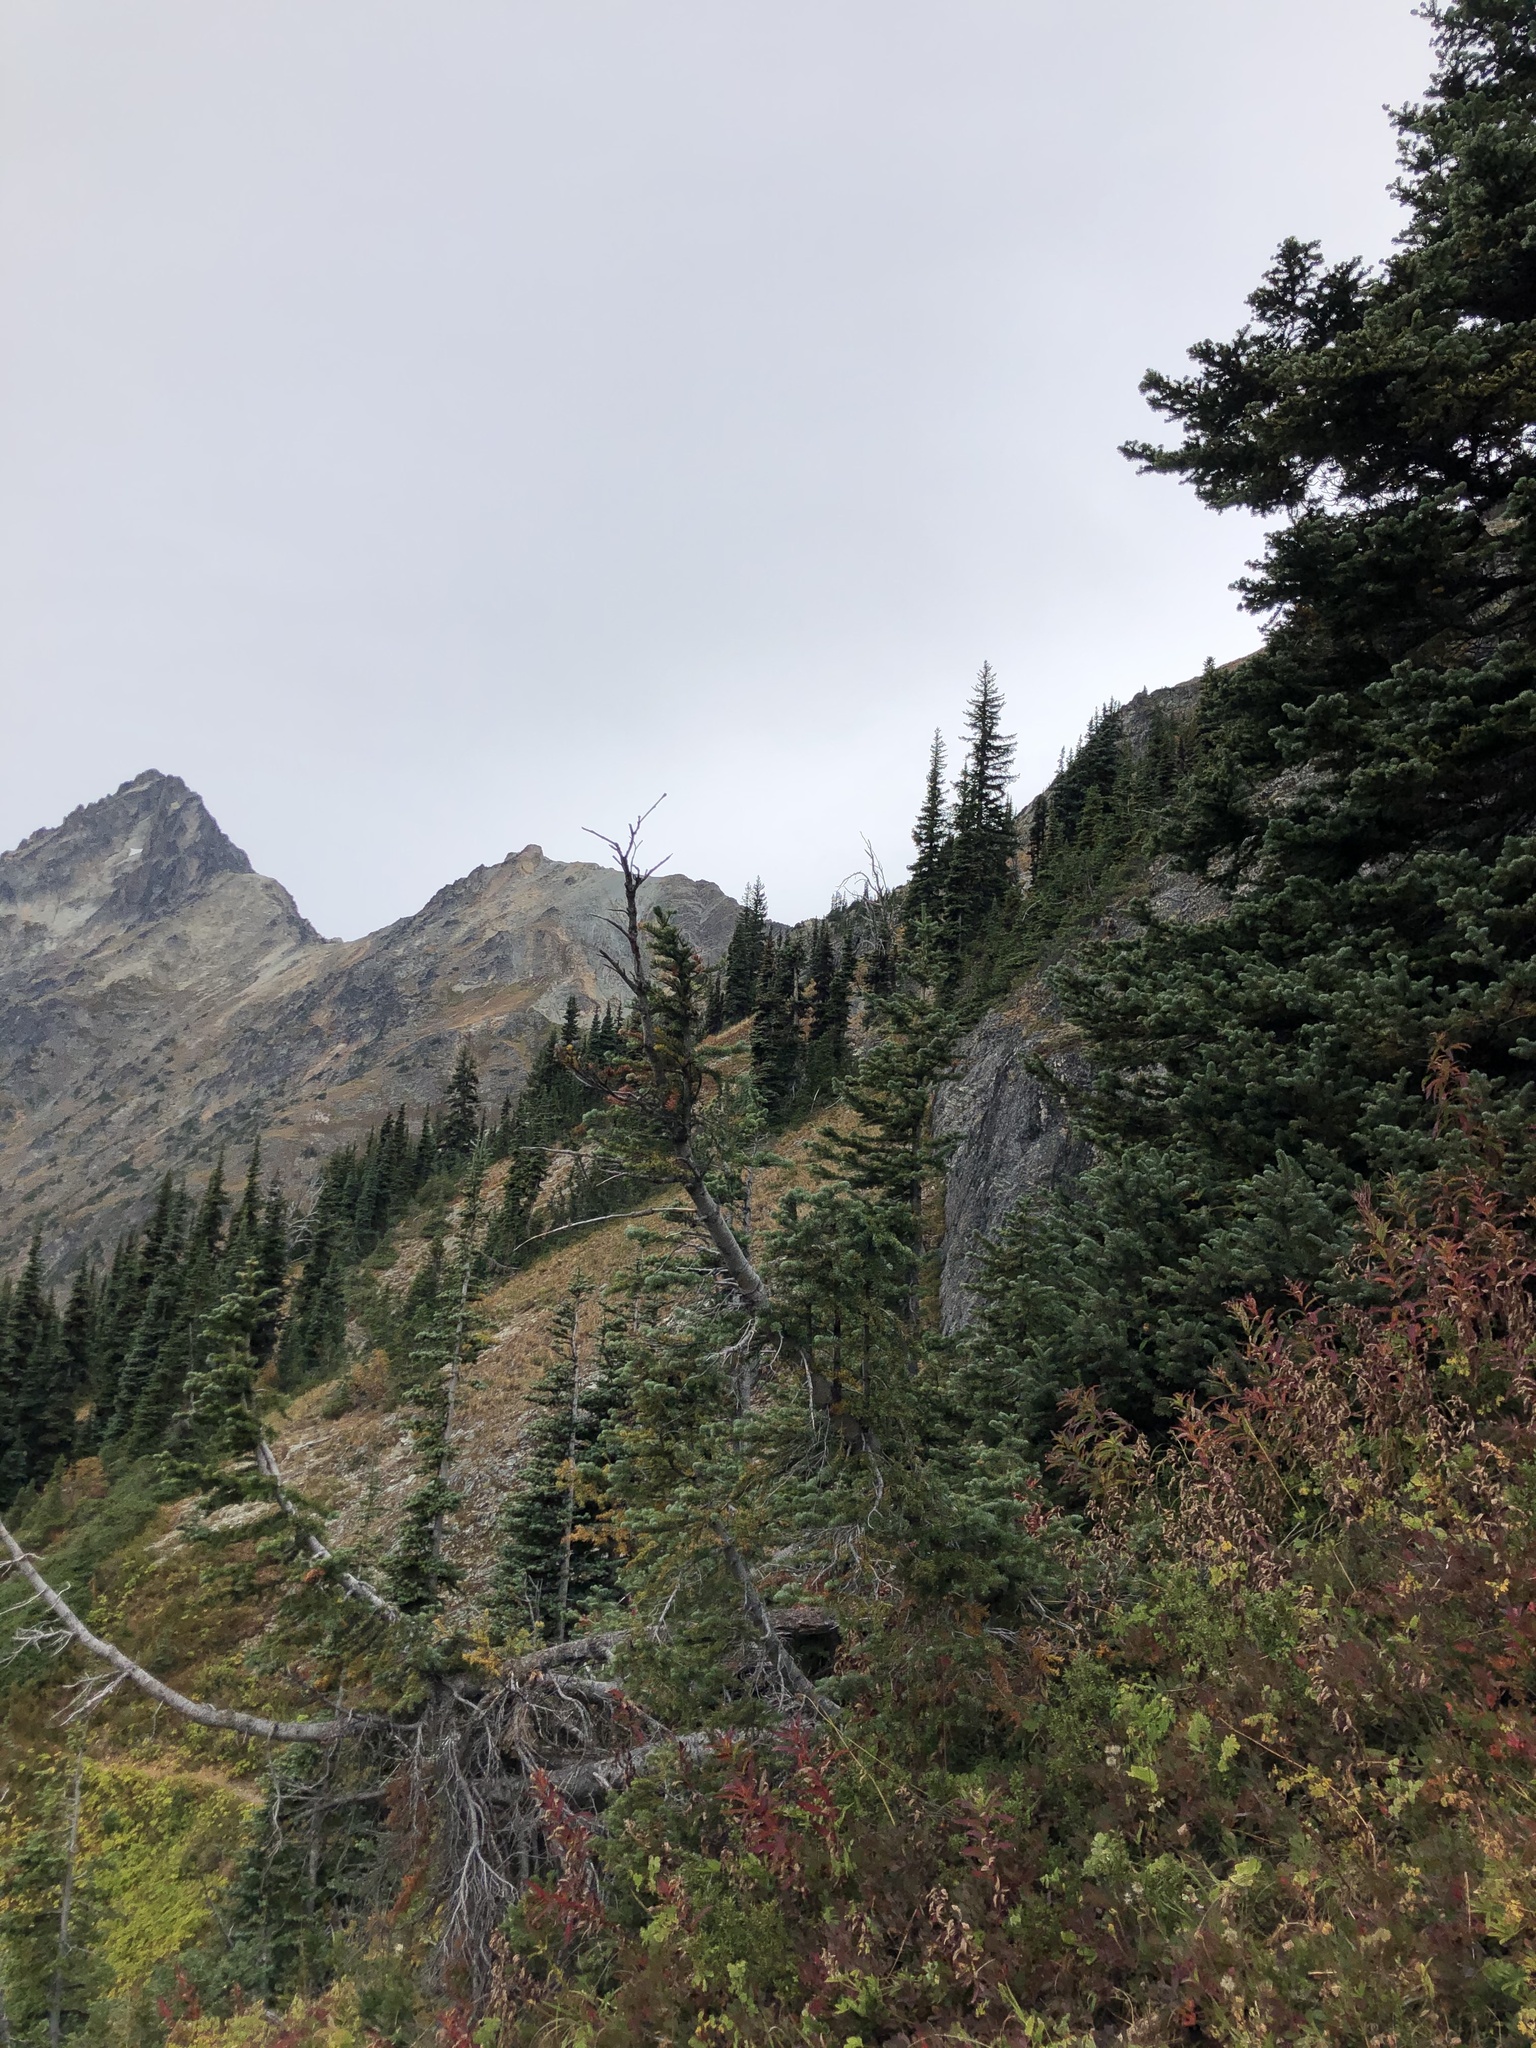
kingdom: Plantae
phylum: Tracheophyta
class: Pinopsida
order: Pinales
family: Pinaceae
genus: Abies
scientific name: Abies lasiocarpa
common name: Subalpine fir
